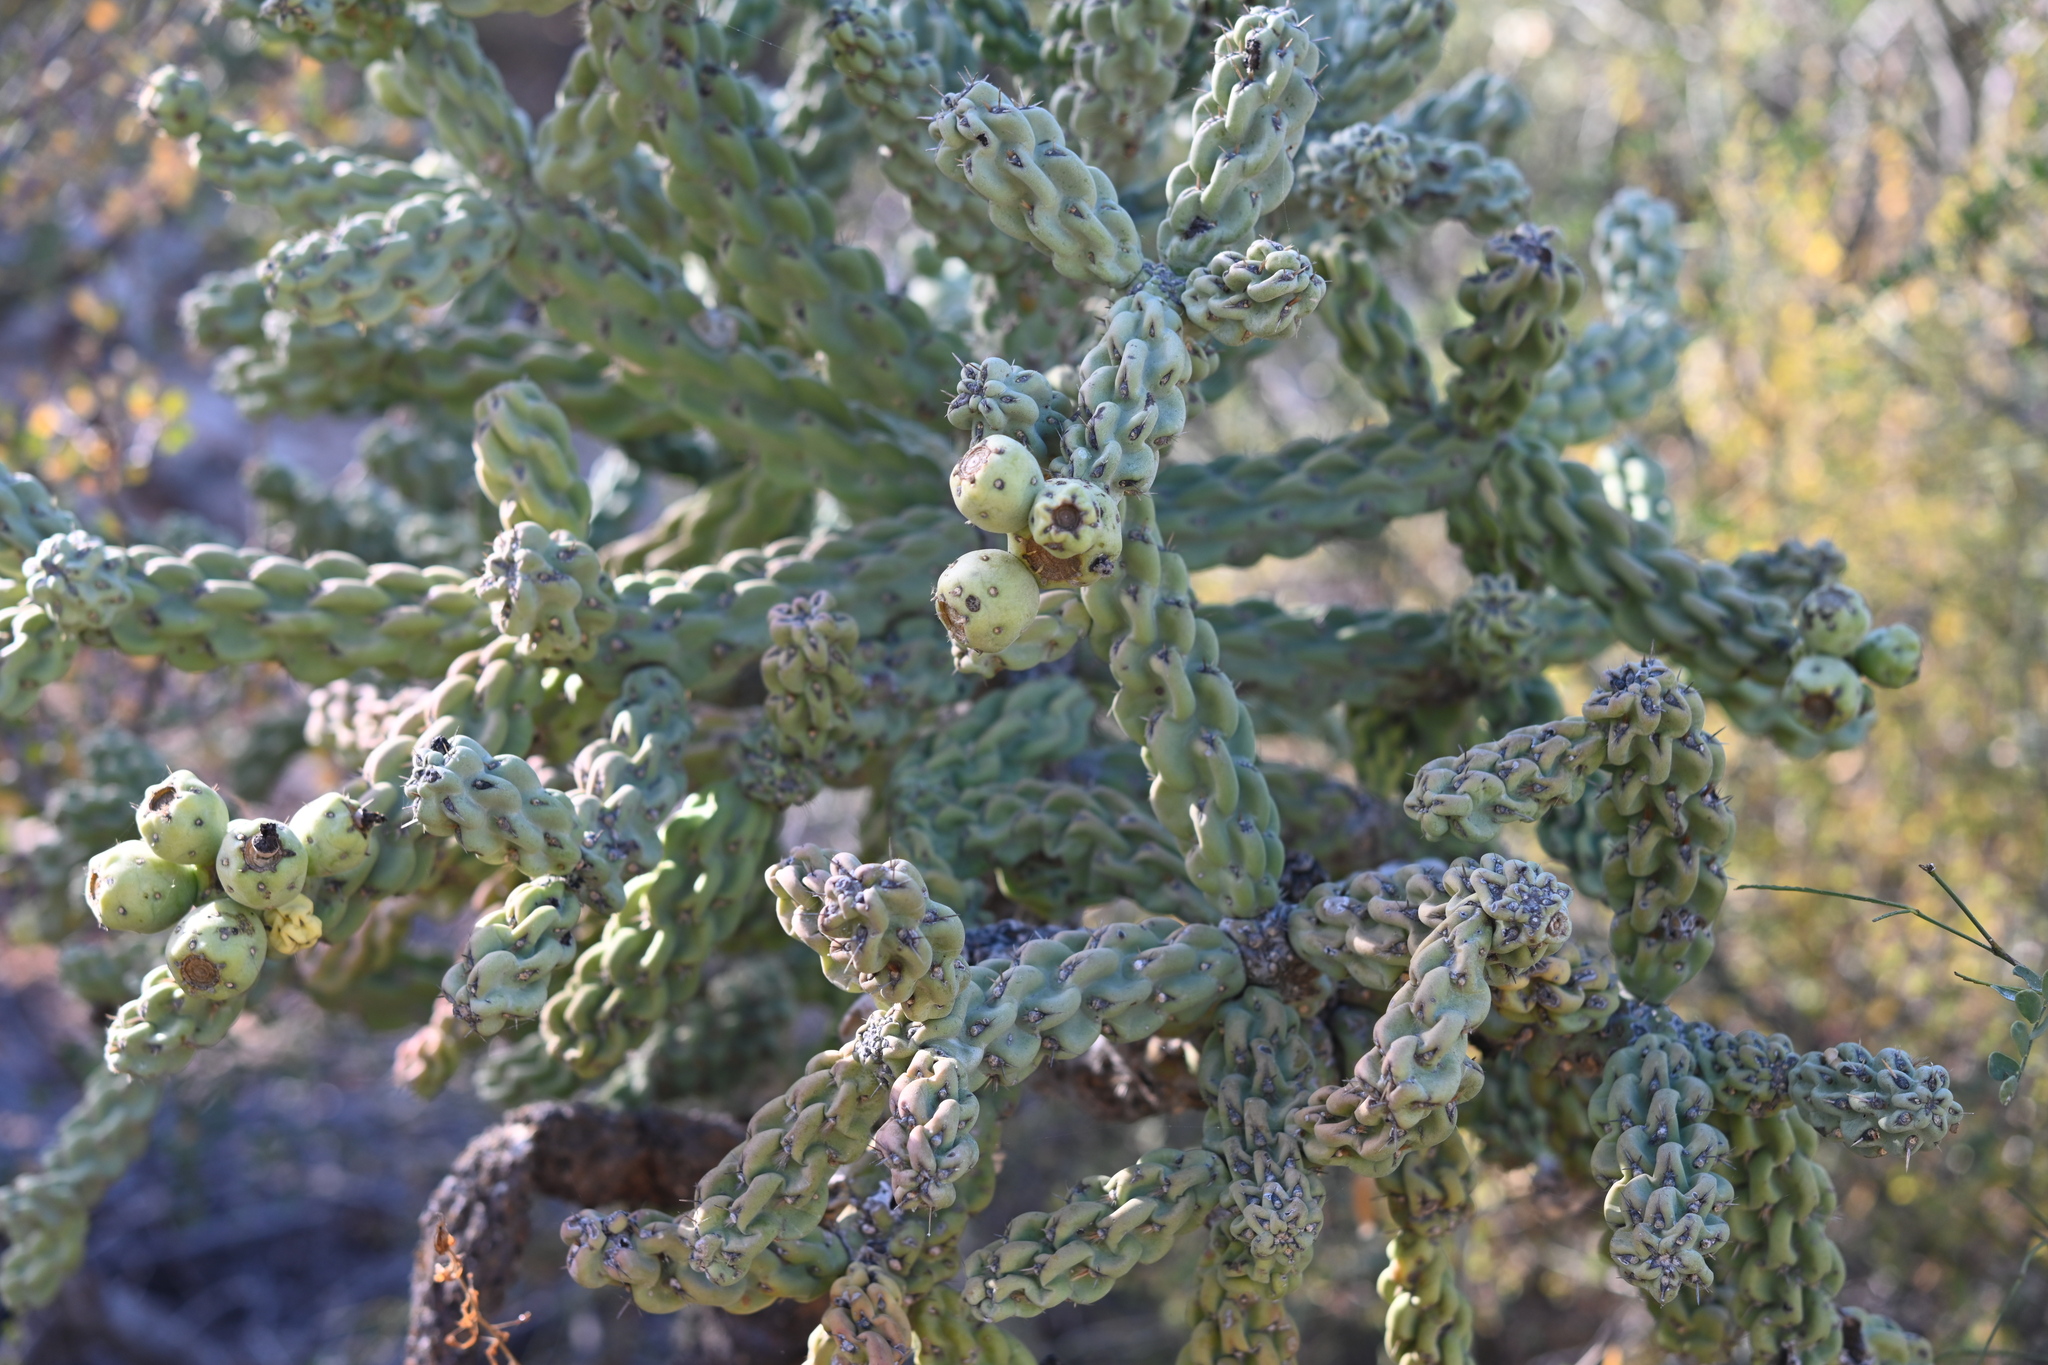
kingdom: Plantae
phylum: Tracheophyta
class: Magnoliopsida
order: Caryophyllales
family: Cactaceae
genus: Cylindropuntia
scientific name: Cylindropuntia cholla
